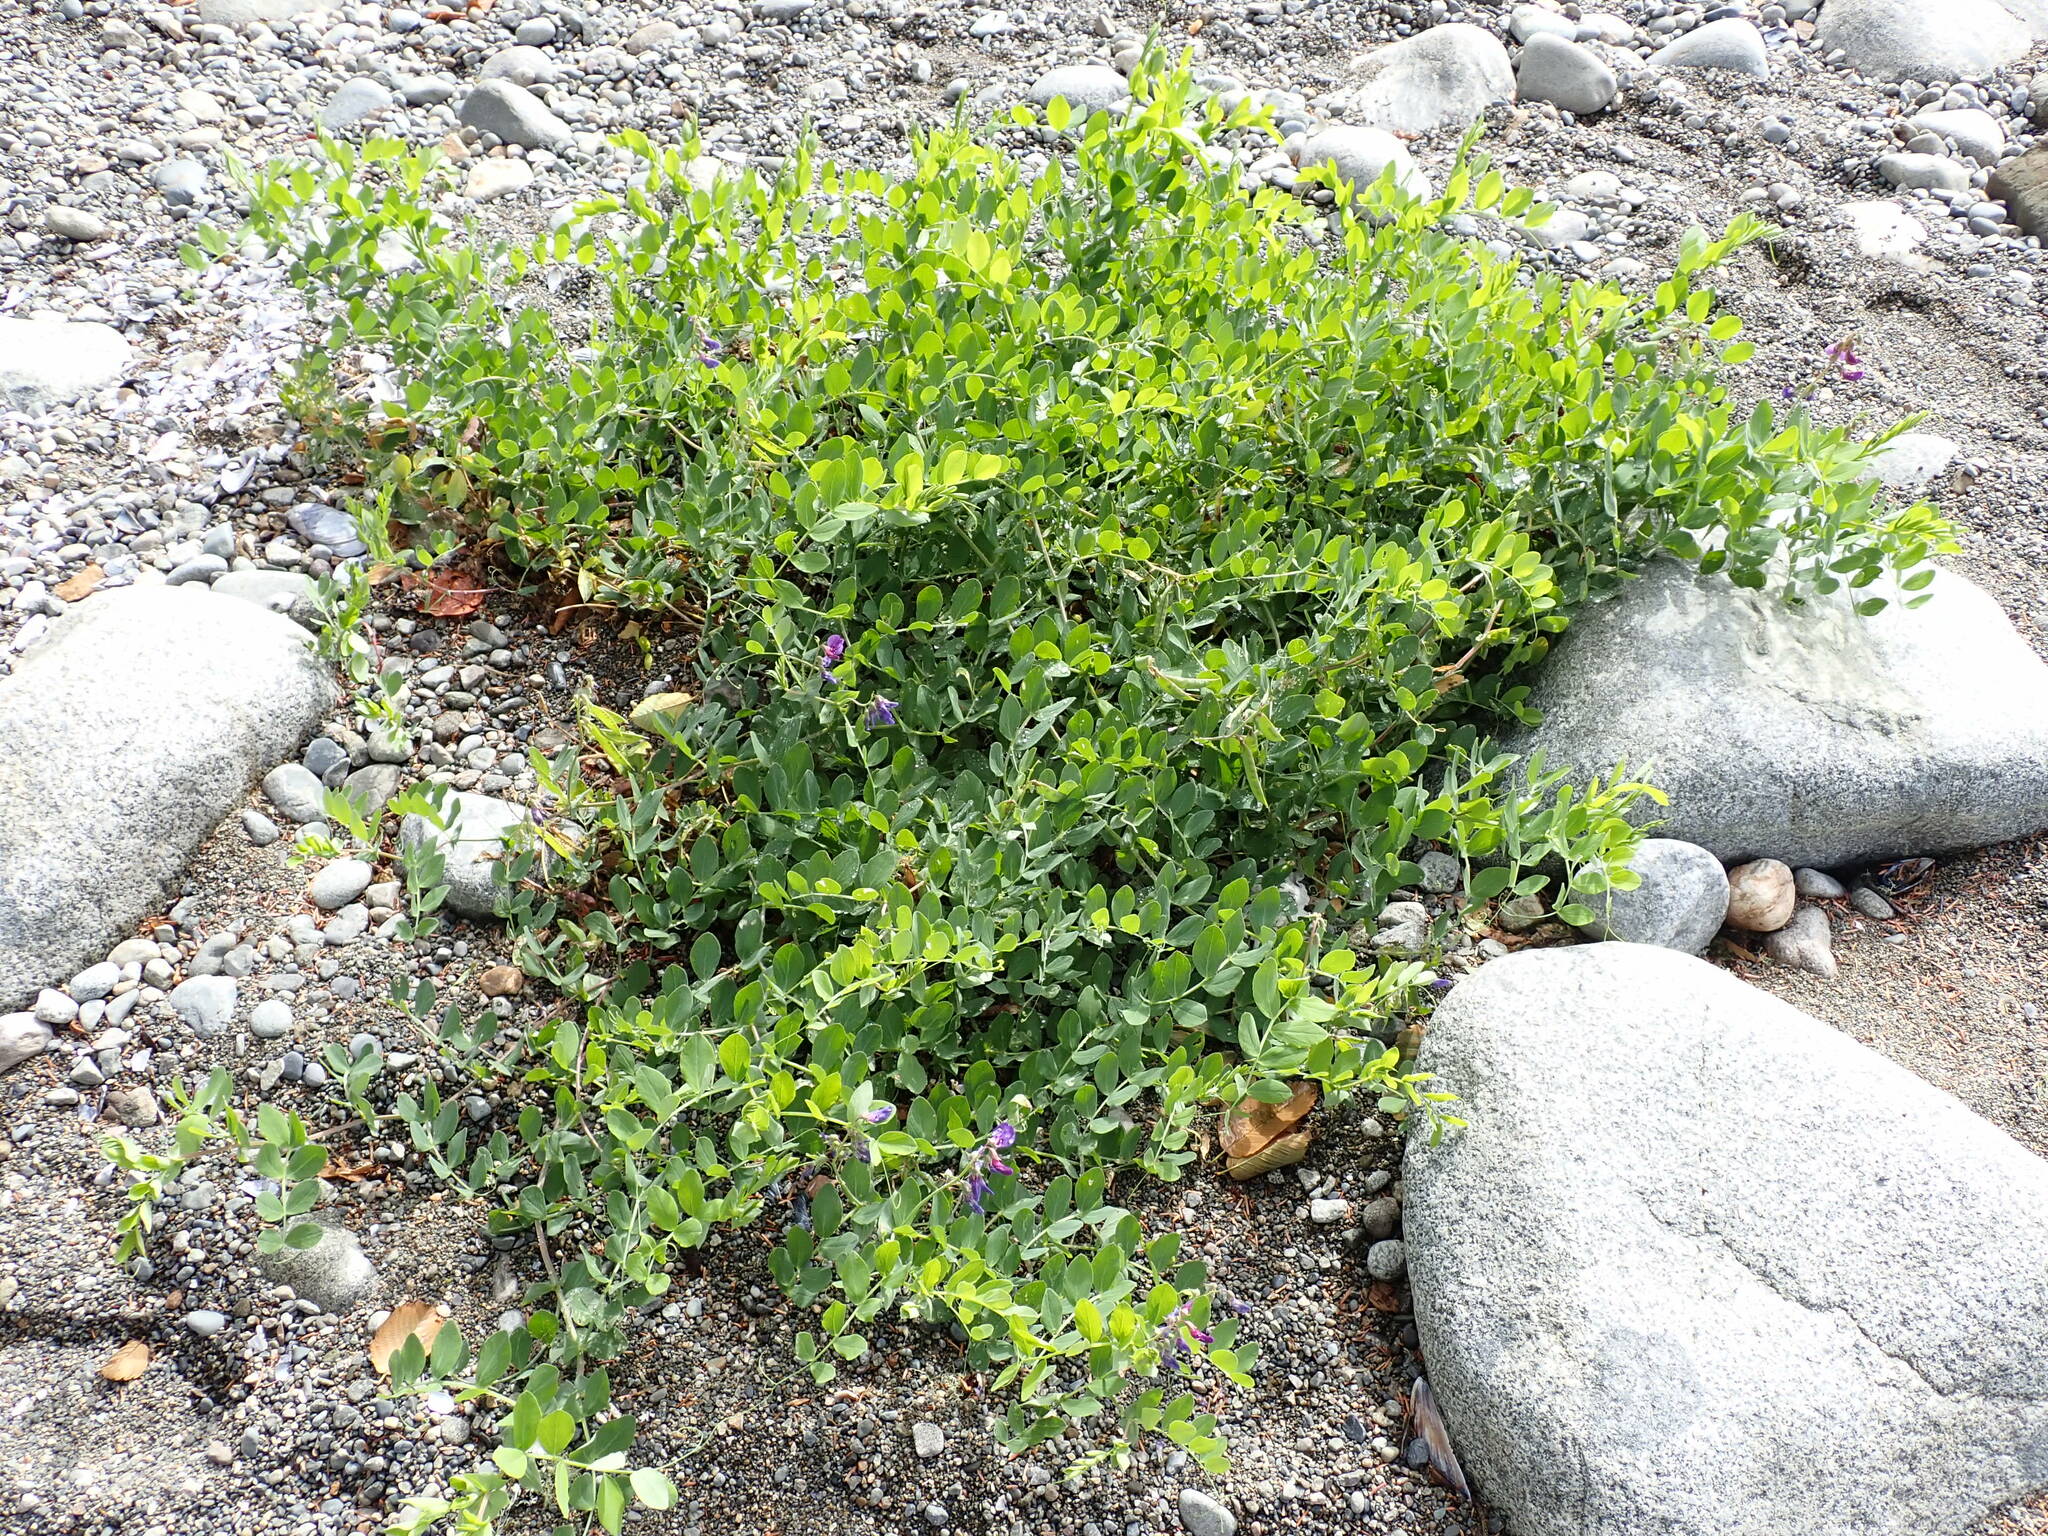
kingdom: Plantae
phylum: Tracheophyta
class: Magnoliopsida
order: Fabales
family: Fabaceae
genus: Lathyrus
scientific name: Lathyrus japonicus
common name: Sea pea
